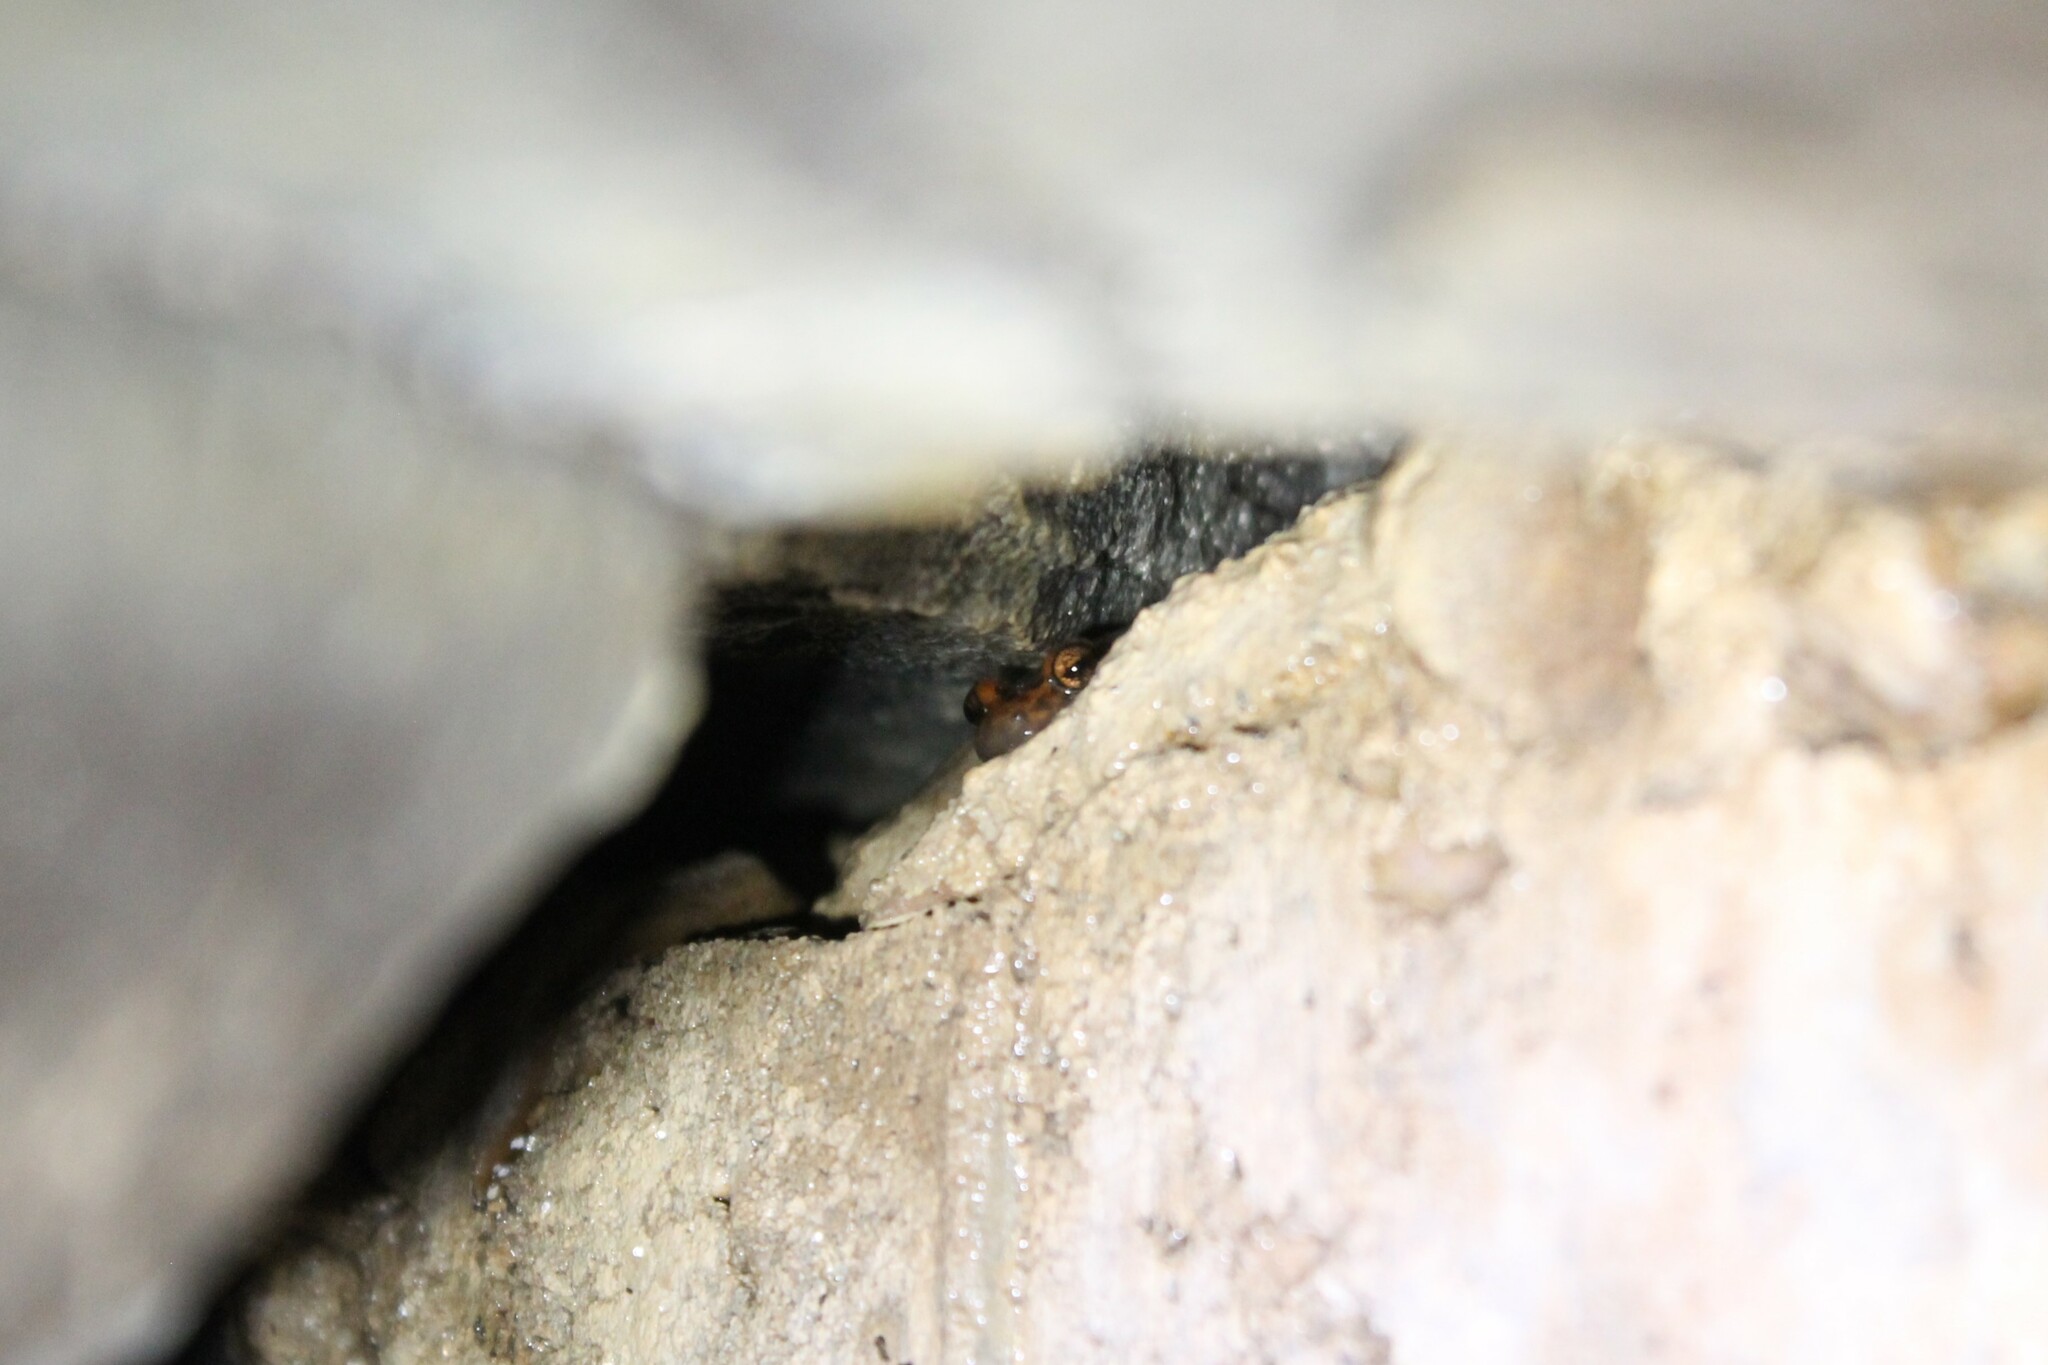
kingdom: Animalia
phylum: Chordata
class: Amphibia
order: Caudata
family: Plethodontidae
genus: Eurycea
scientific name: Eurycea lucifuga
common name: Cave salamander
